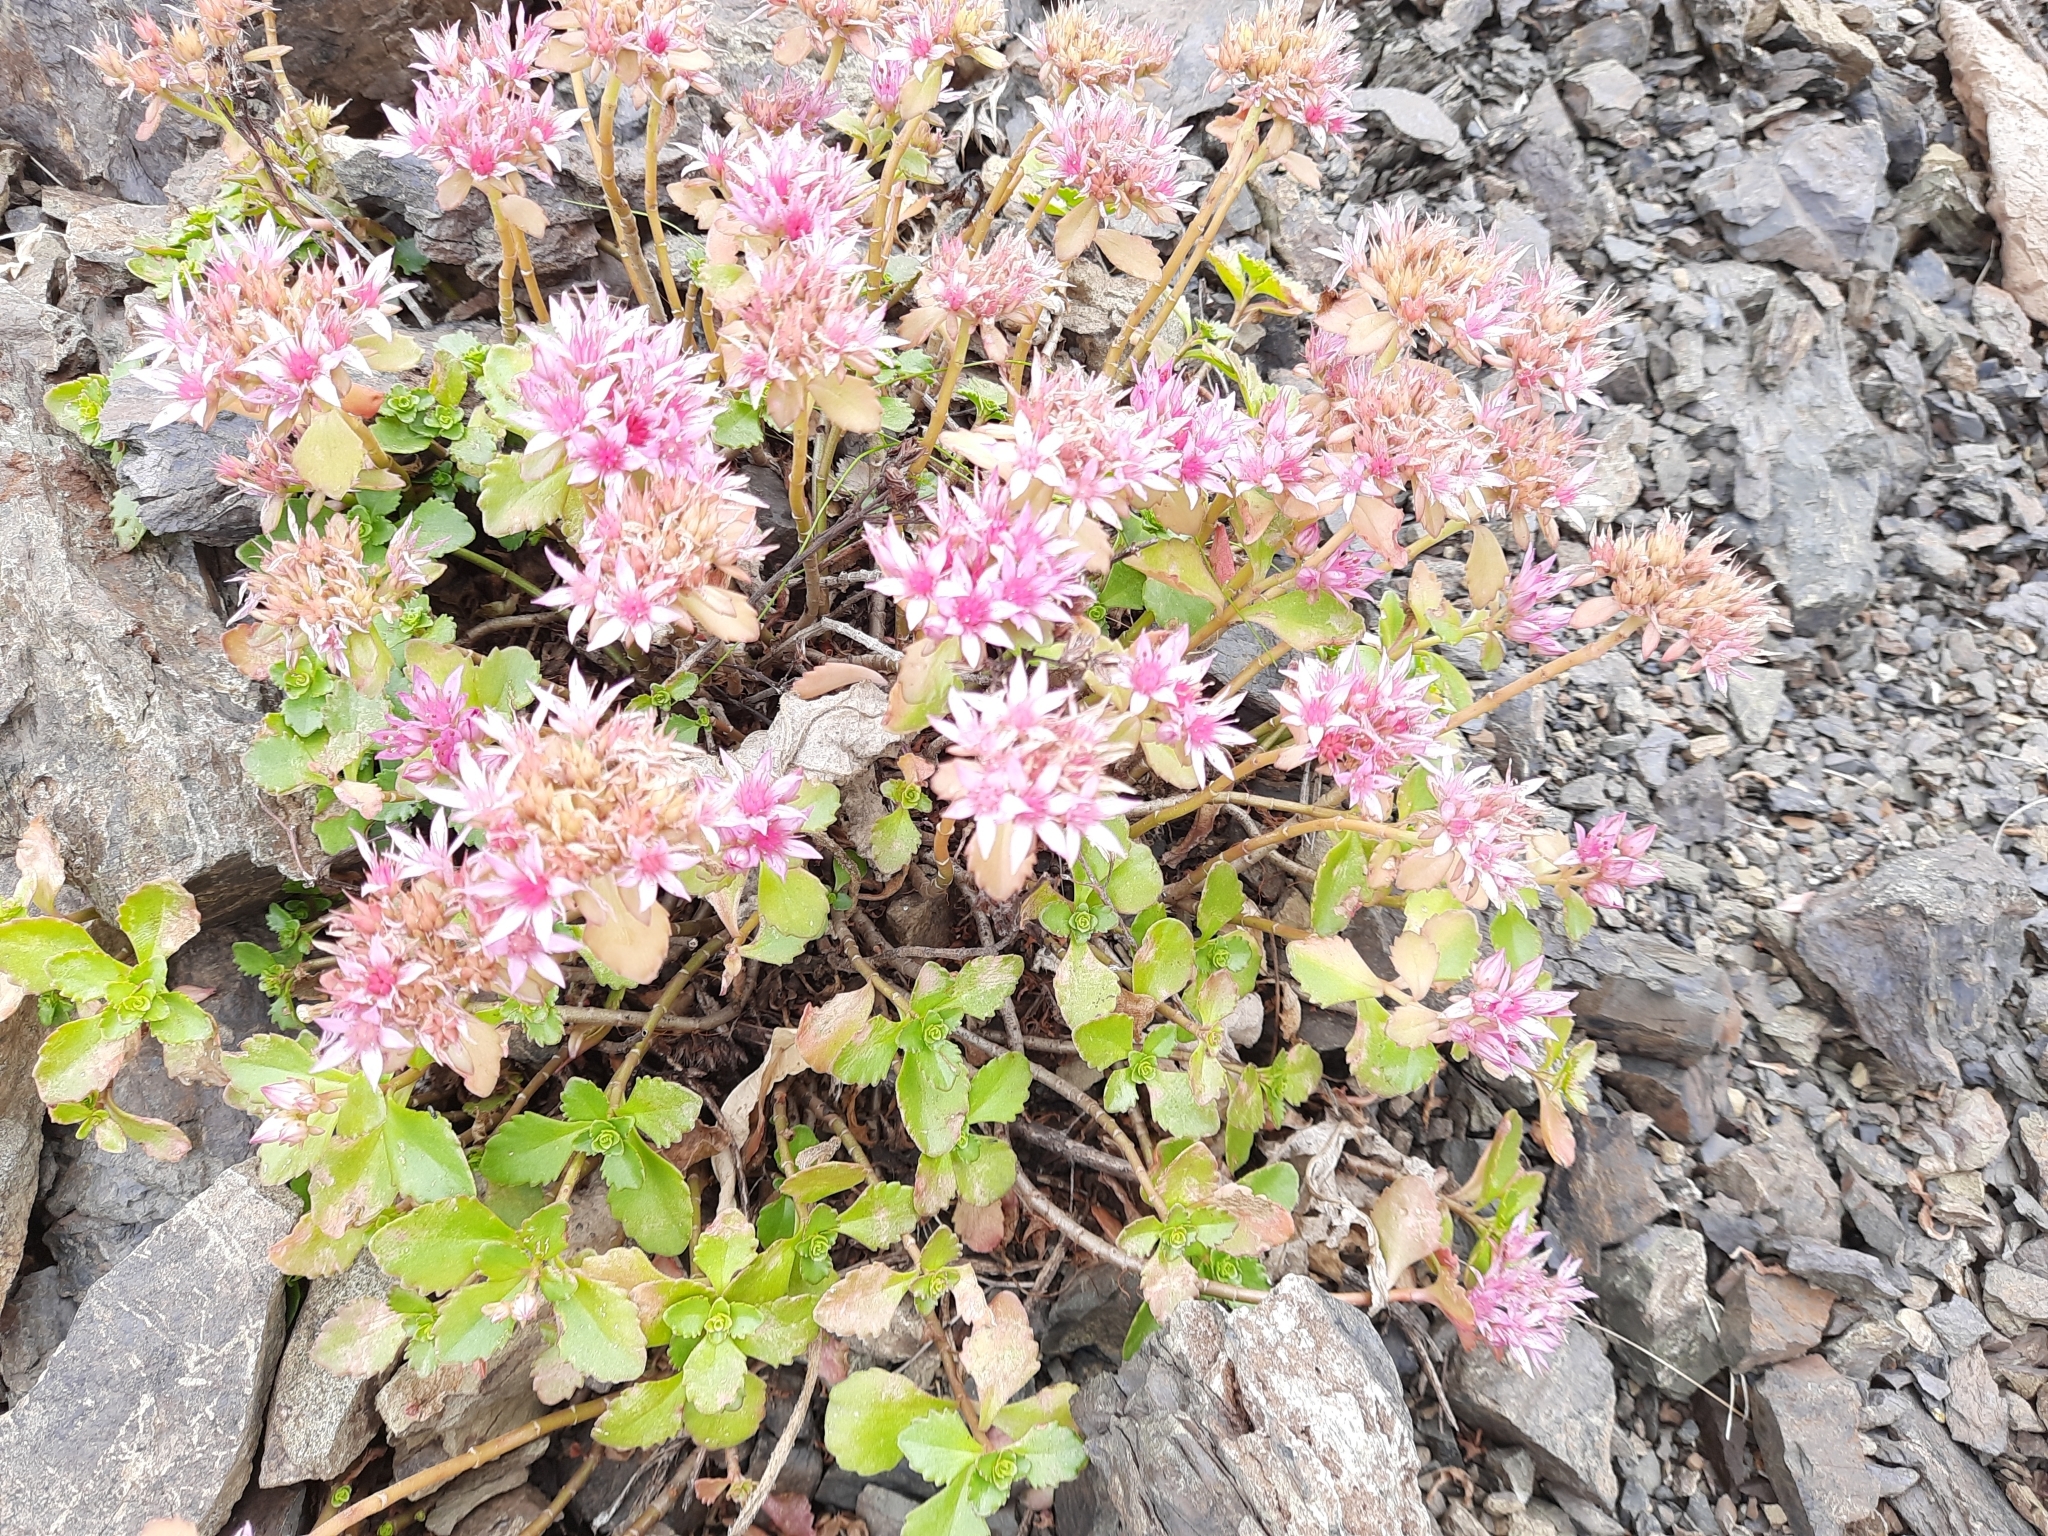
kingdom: Plantae
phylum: Tracheophyta
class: Magnoliopsida
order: Saxifragales
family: Crassulaceae
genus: Phedimus
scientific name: Phedimus spurius
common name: Caucasian stonecrop
